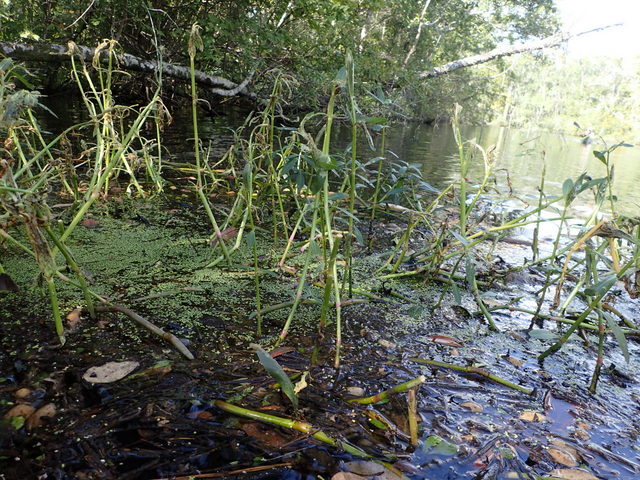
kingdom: Animalia
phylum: Arthropoda
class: Insecta
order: Coleoptera
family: Chrysomelidae
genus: Agasicles
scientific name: Agasicles hygrophila
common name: Alligatorweed flea beetle
